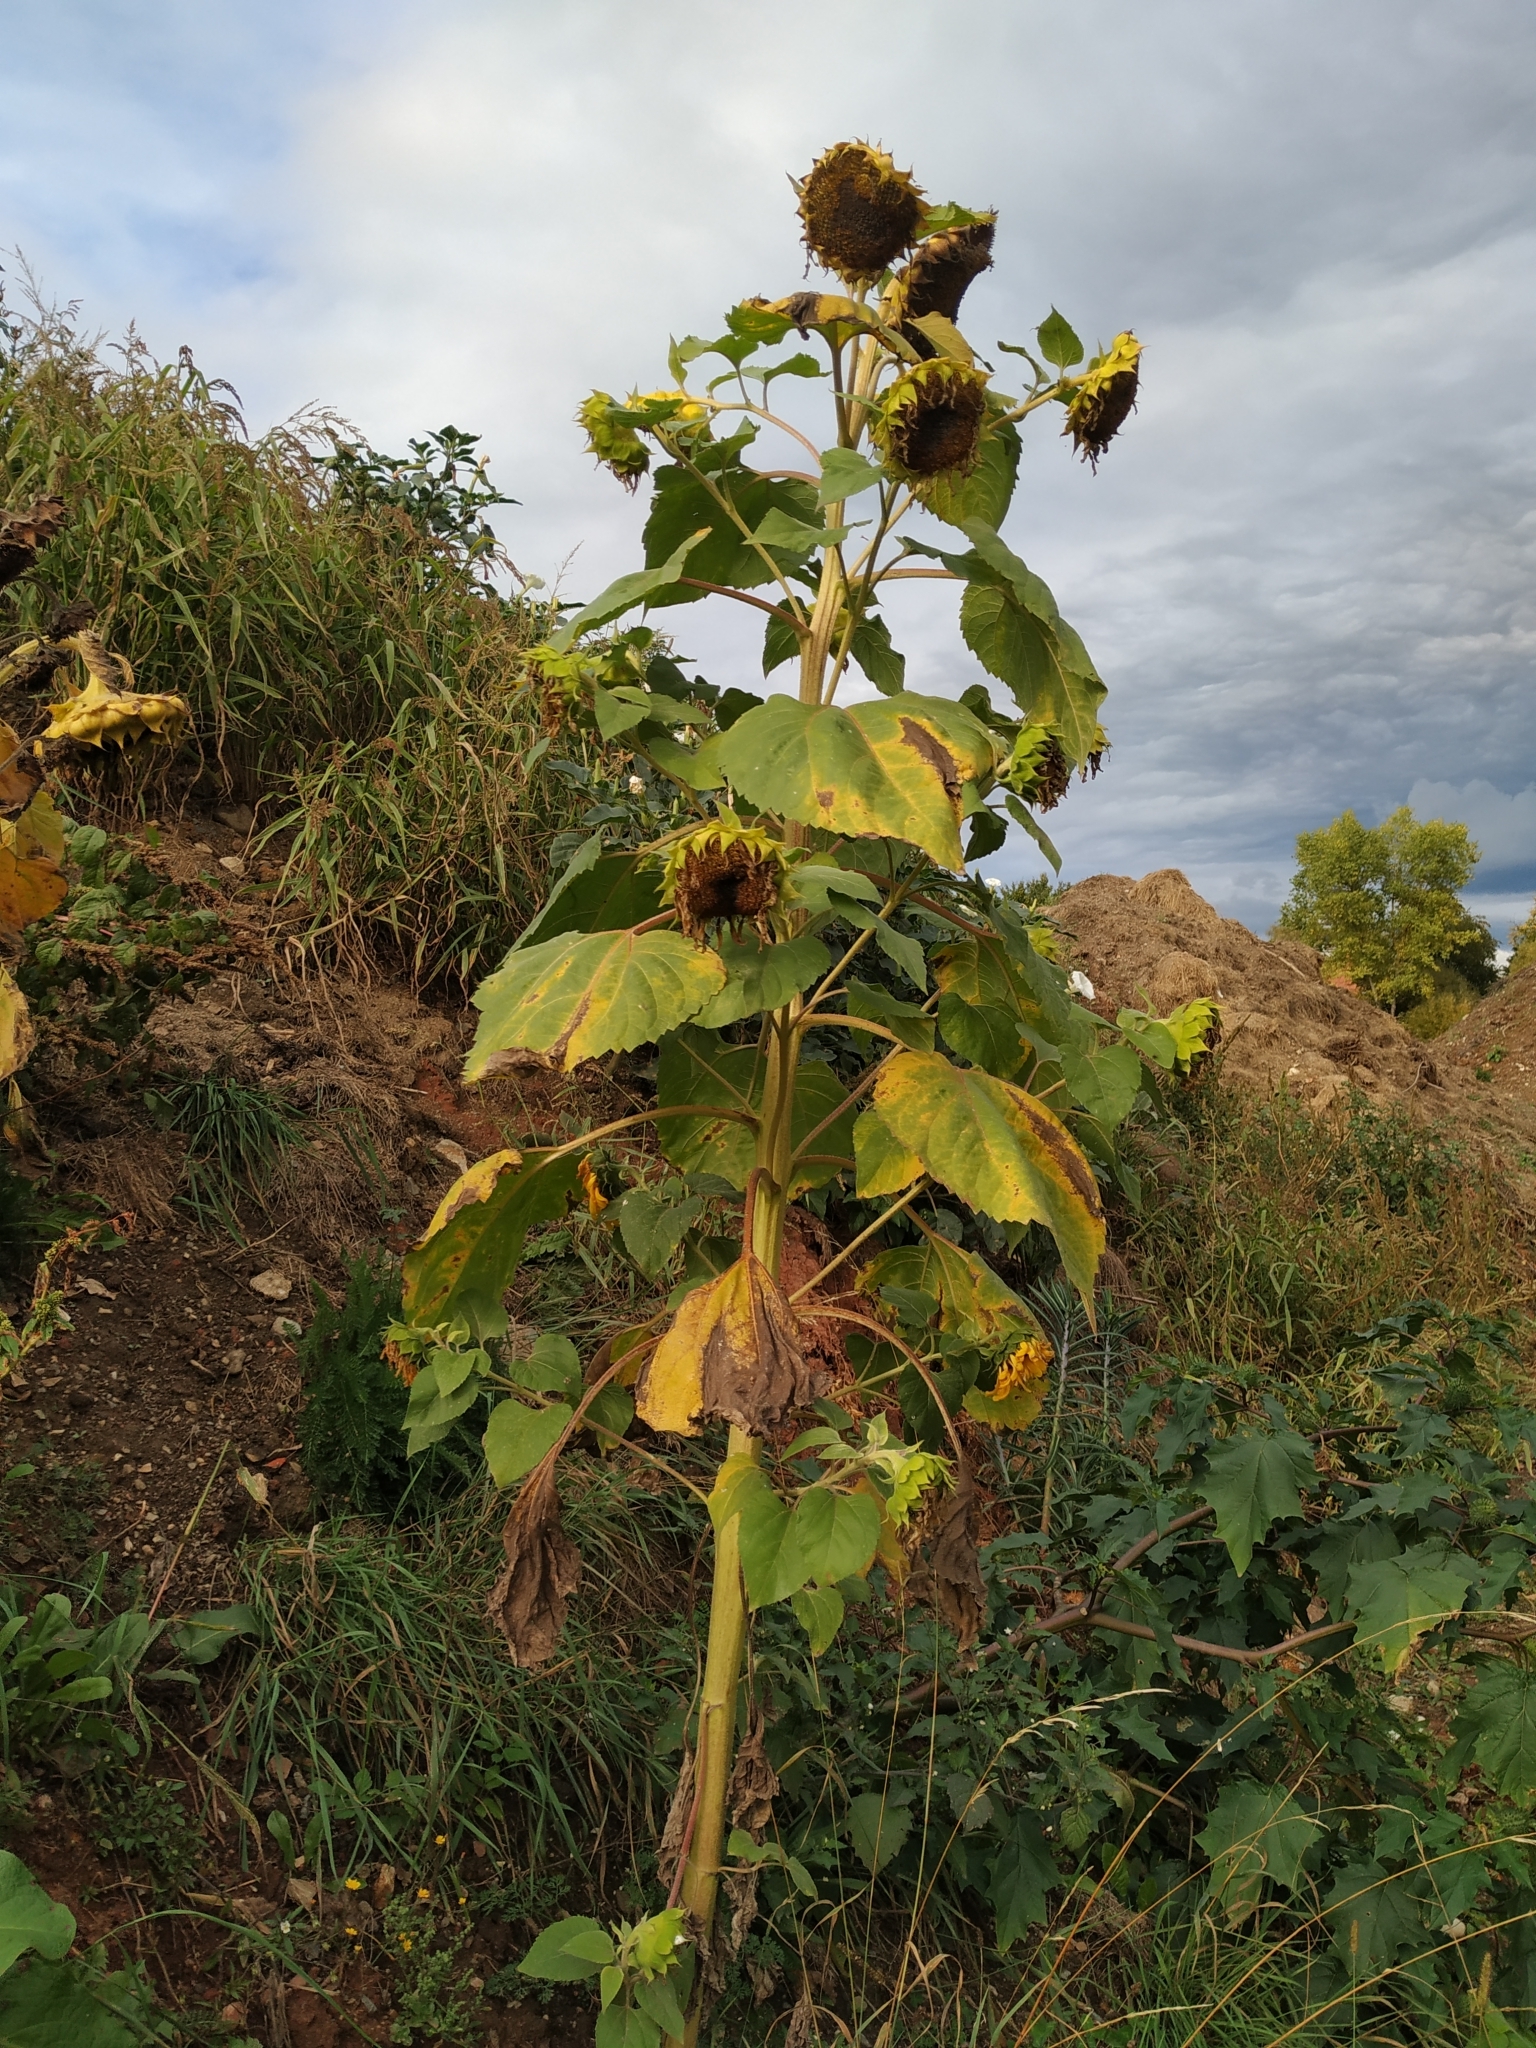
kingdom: Plantae
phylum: Tracheophyta
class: Magnoliopsida
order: Asterales
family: Asteraceae
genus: Helianthus
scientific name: Helianthus annuus
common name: Sunflower
